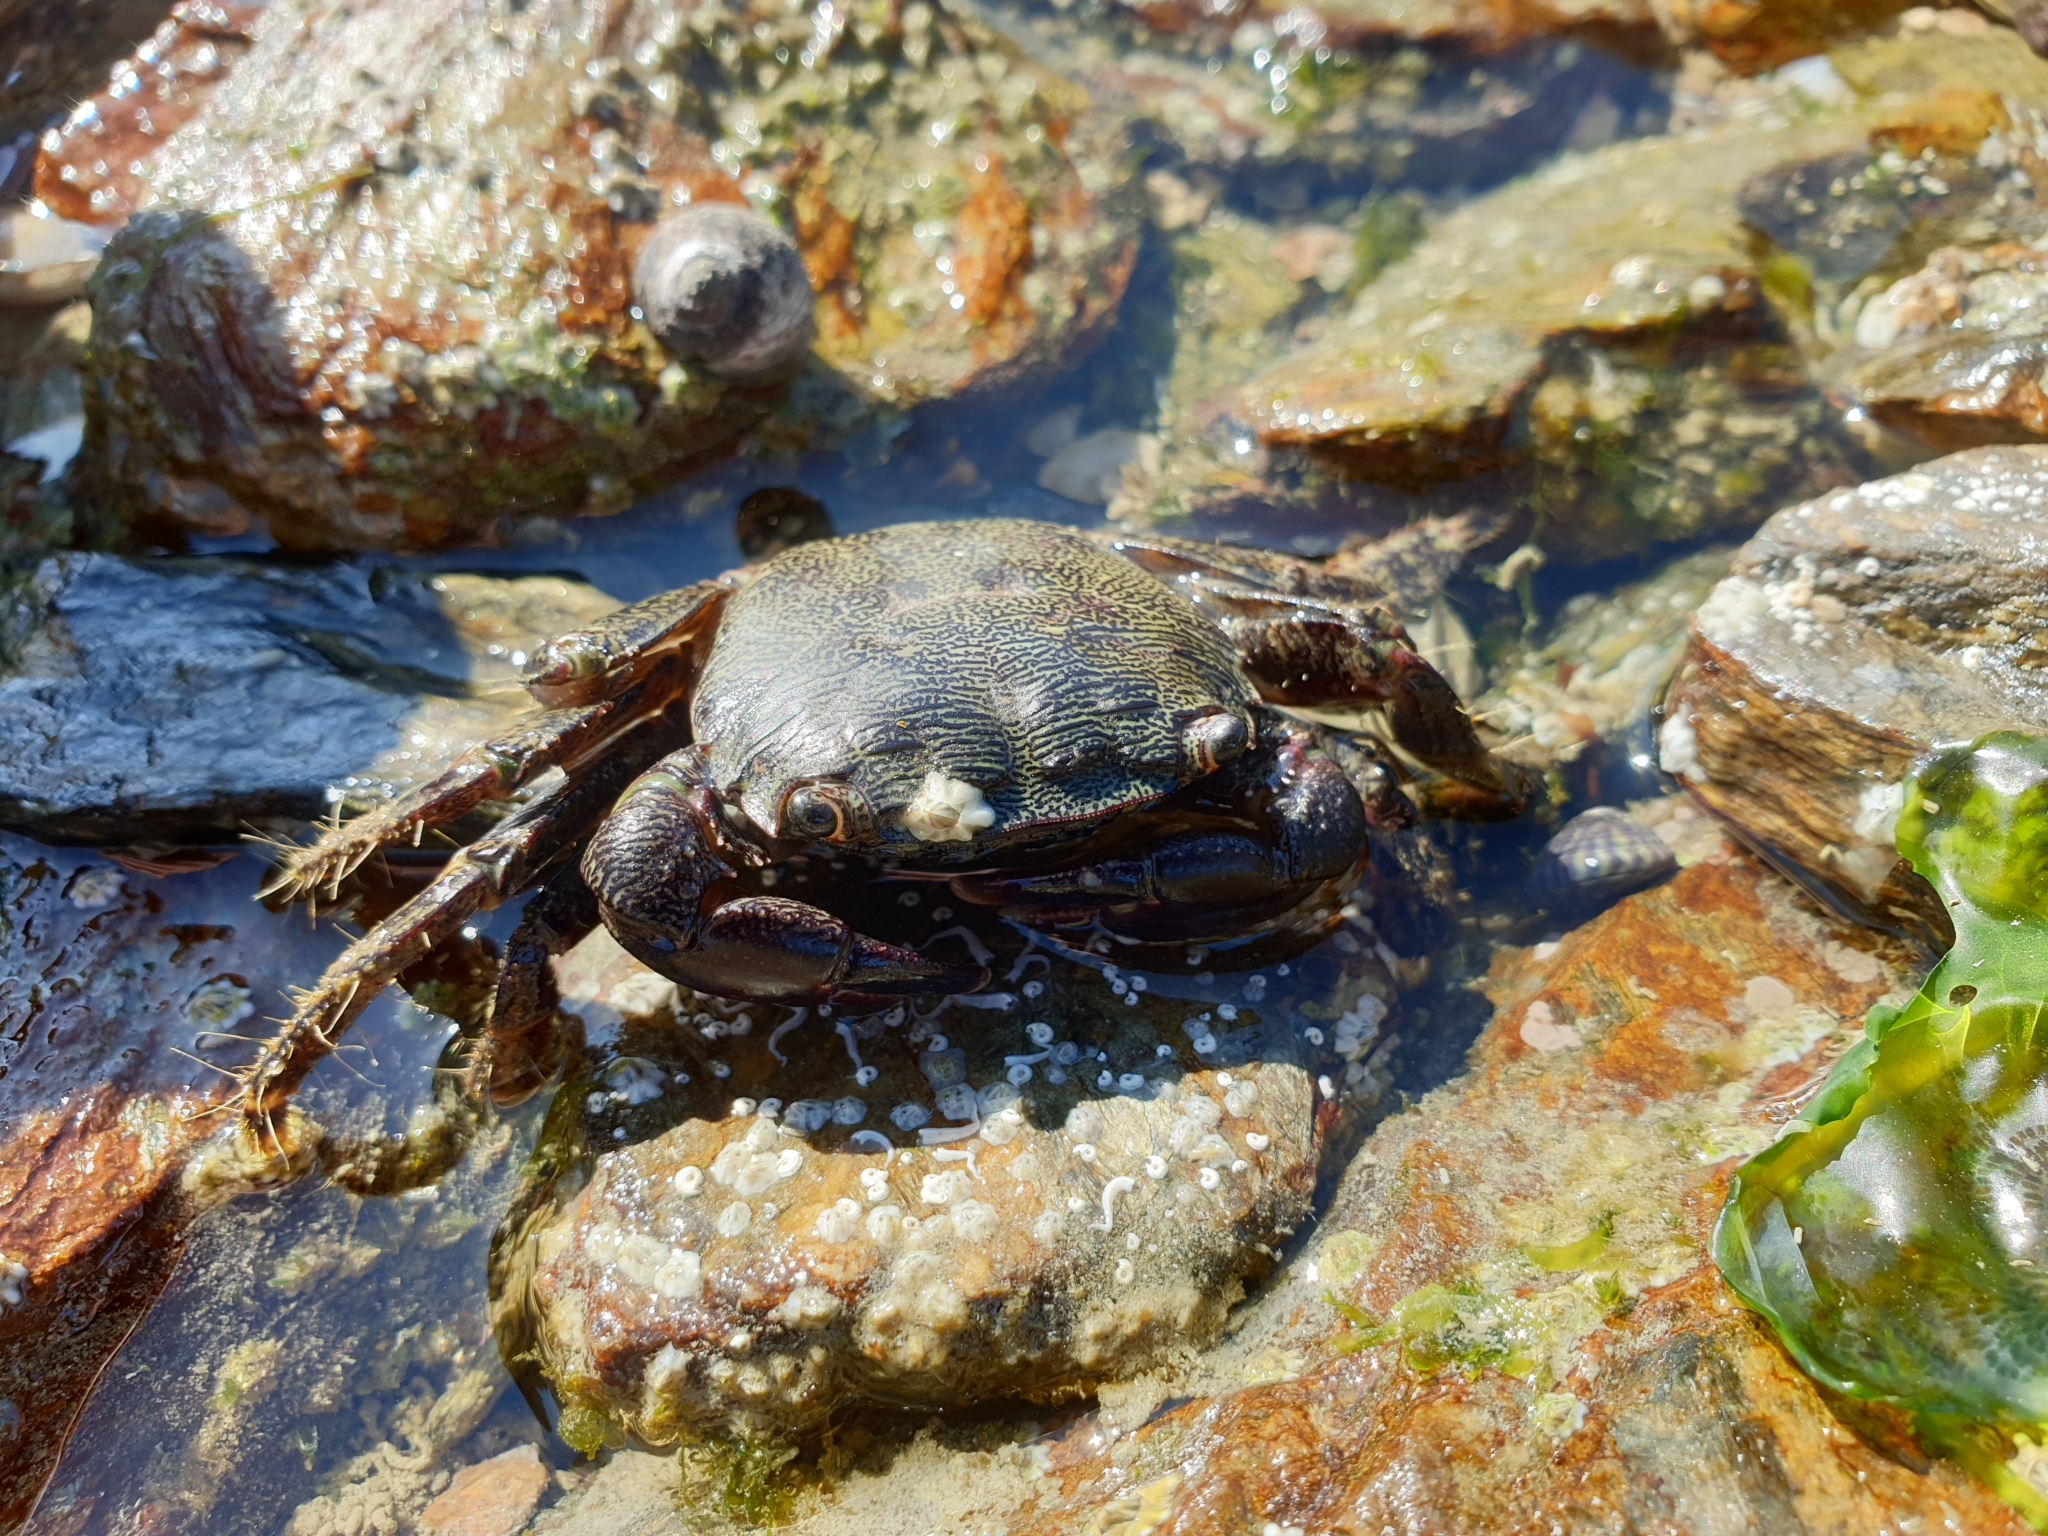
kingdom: Animalia
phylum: Arthropoda
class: Malacostraca
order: Decapoda
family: Grapsidae
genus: Pachygrapsus
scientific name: Pachygrapsus marmoratus
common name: Marbled rock crab
